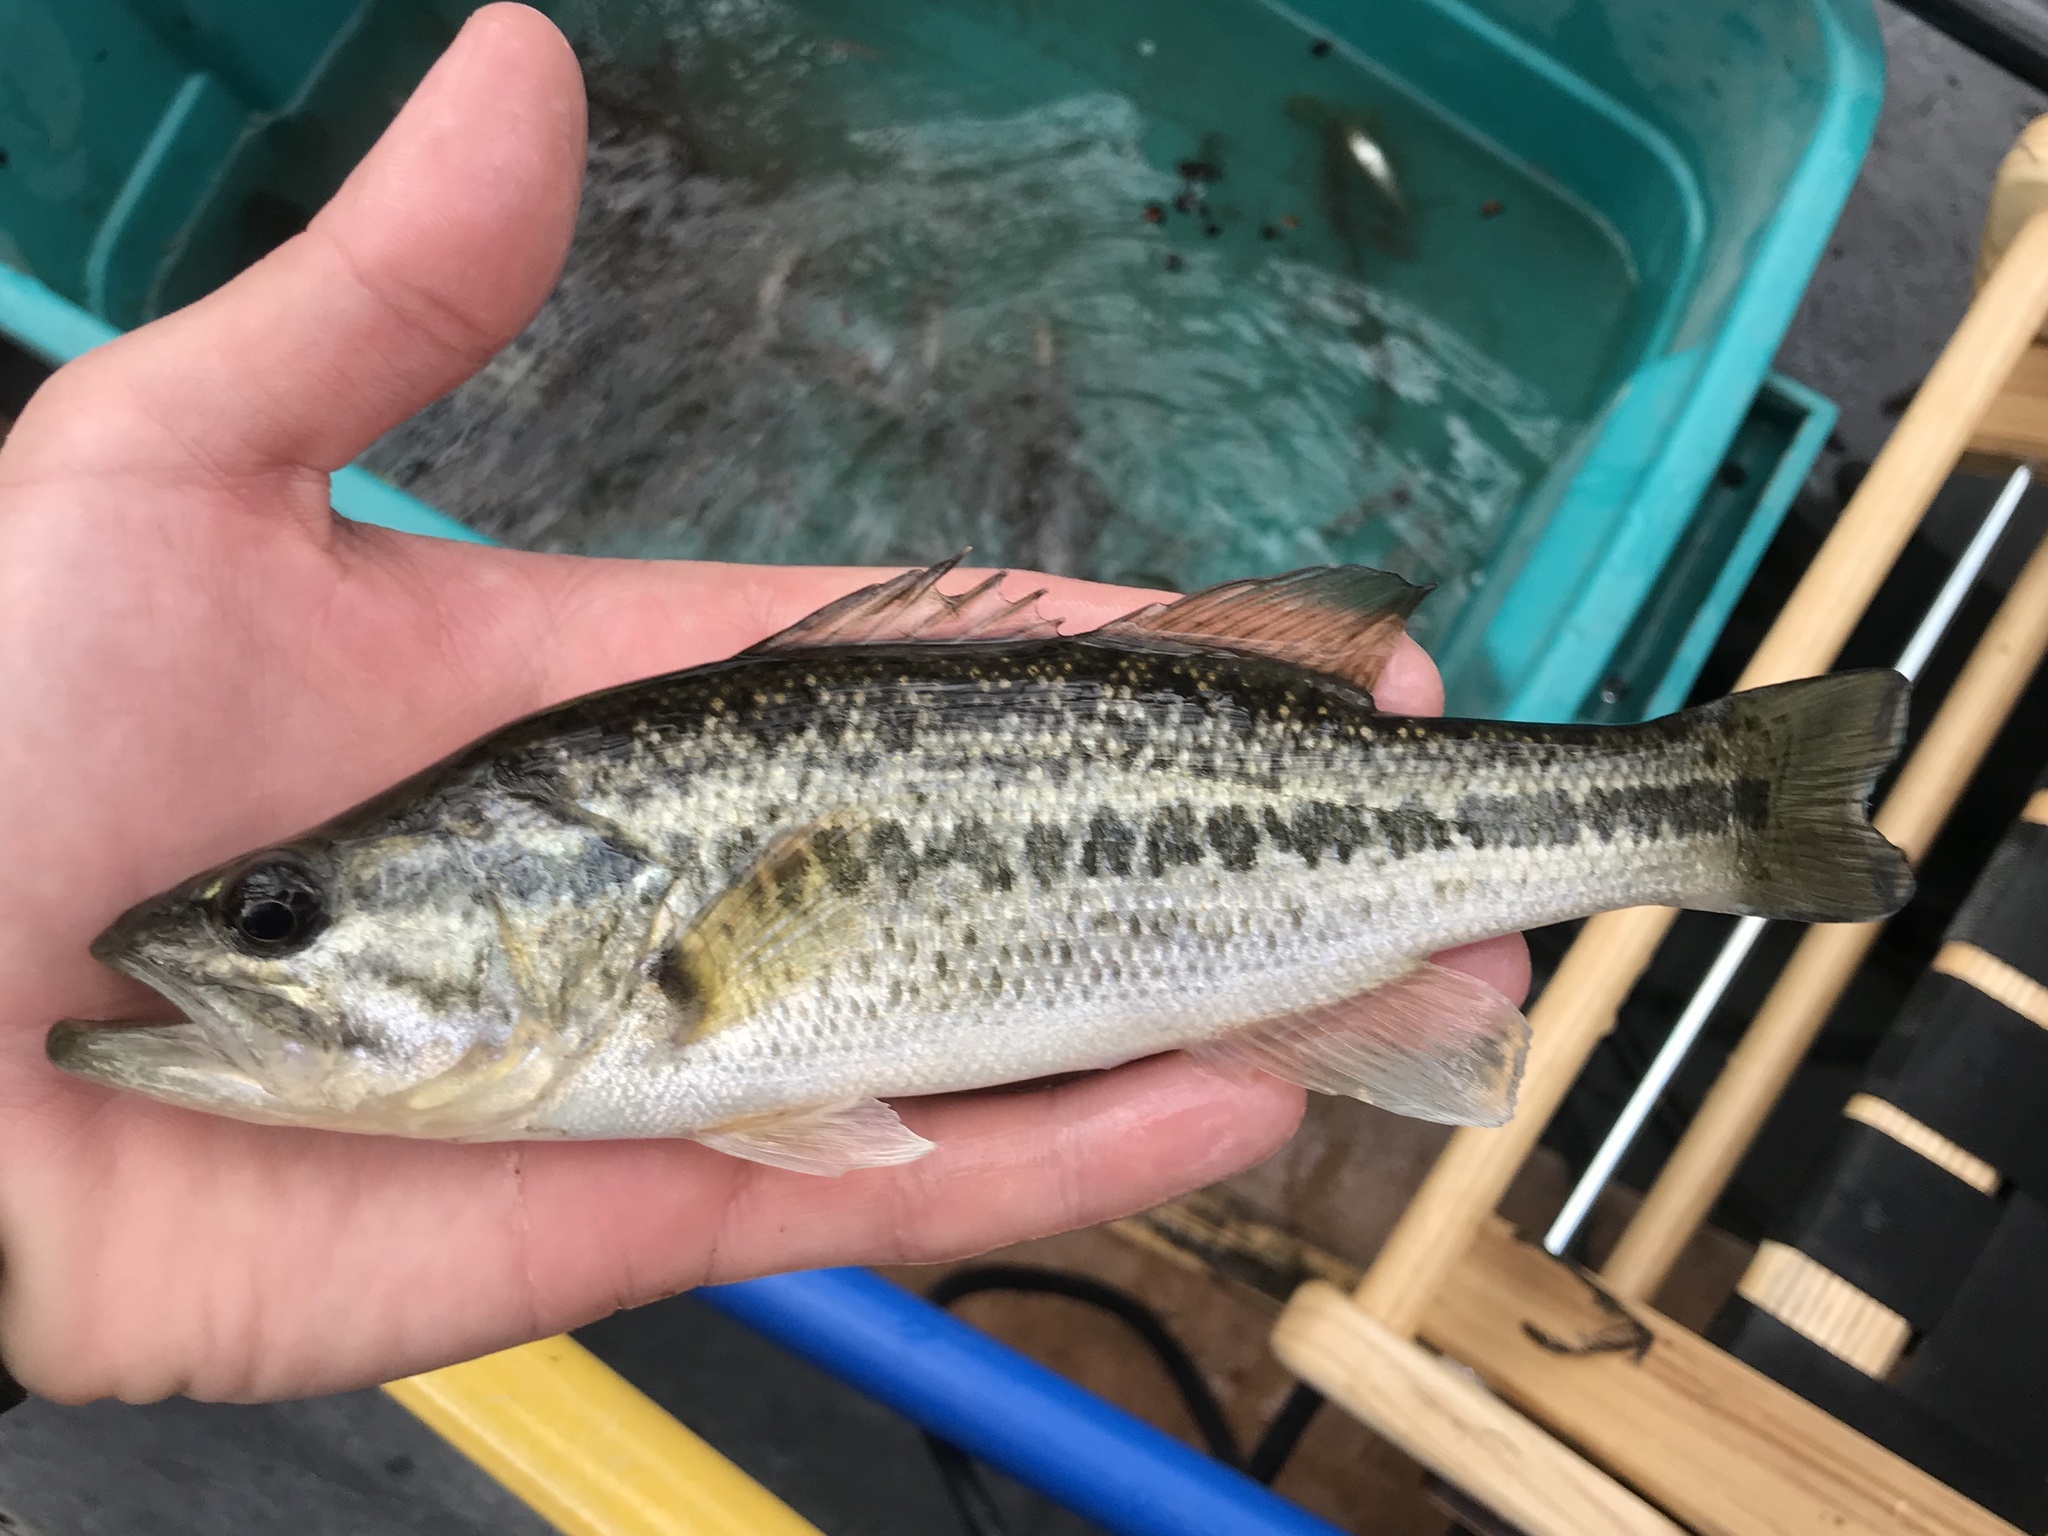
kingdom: Animalia
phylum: Chordata
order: Perciformes
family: Centrarchidae
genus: Micropterus
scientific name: Micropterus
